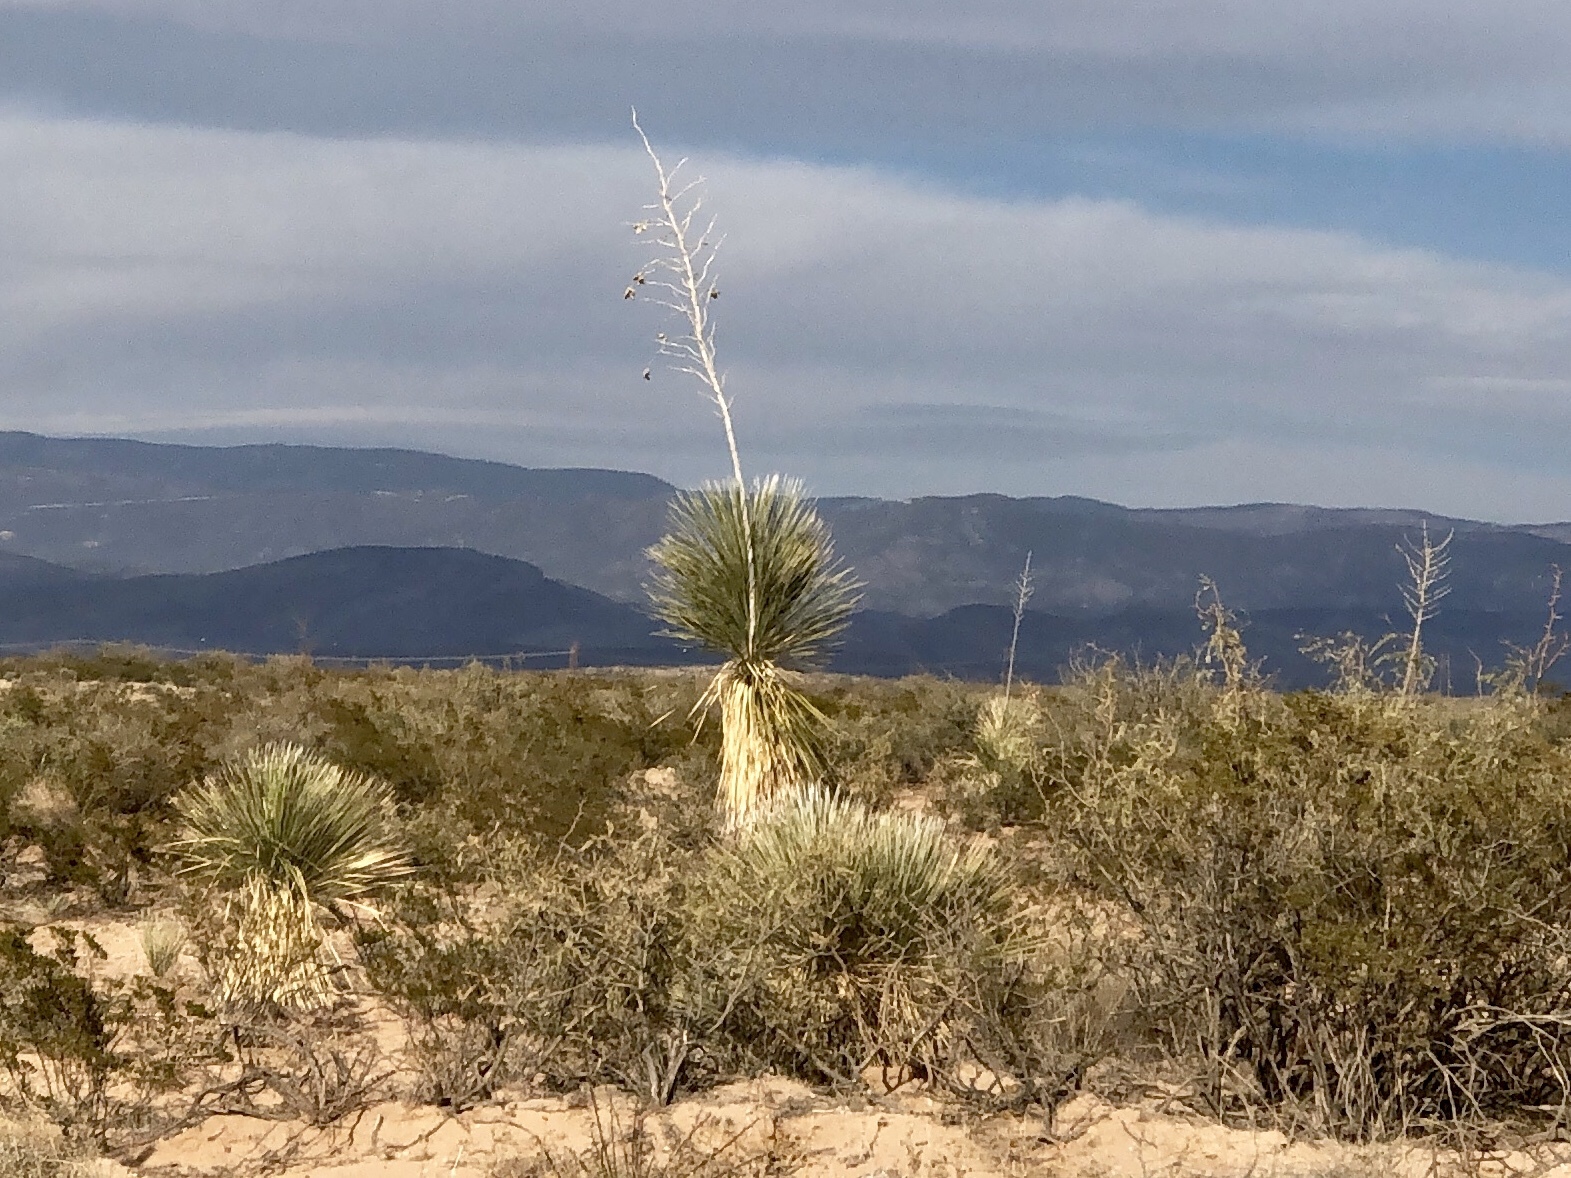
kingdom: Plantae
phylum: Tracheophyta
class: Liliopsida
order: Asparagales
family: Asparagaceae
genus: Yucca
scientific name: Yucca elata
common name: Palmella
